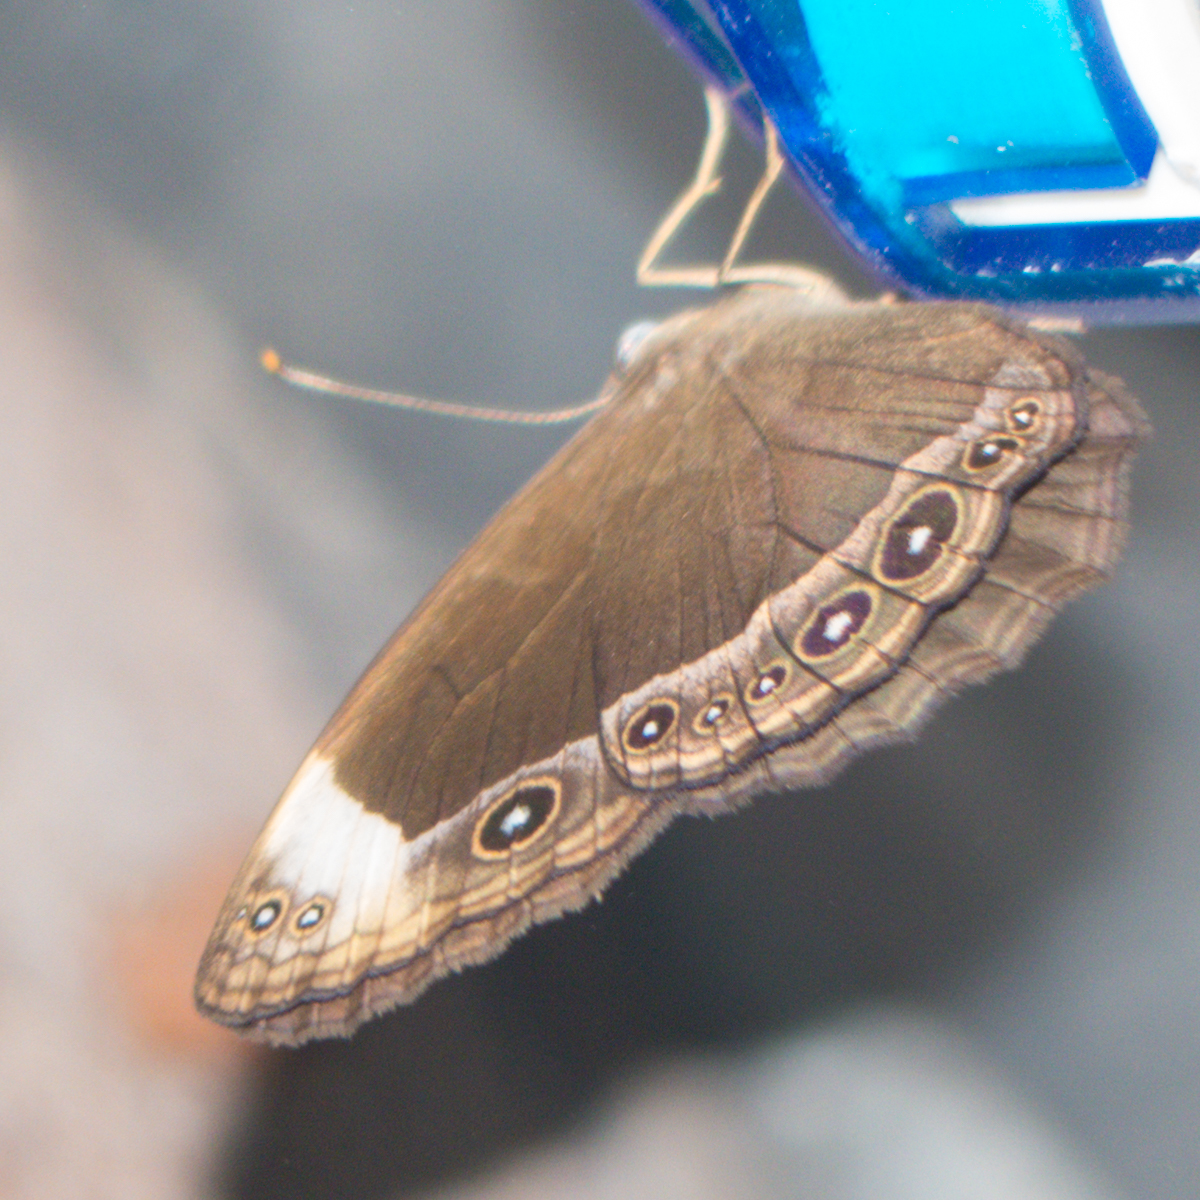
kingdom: Animalia
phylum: Arthropoda
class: Insecta
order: Lepidoptera
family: Nymphalidae
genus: Mycalesis
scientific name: Mycalesis anaxioides
